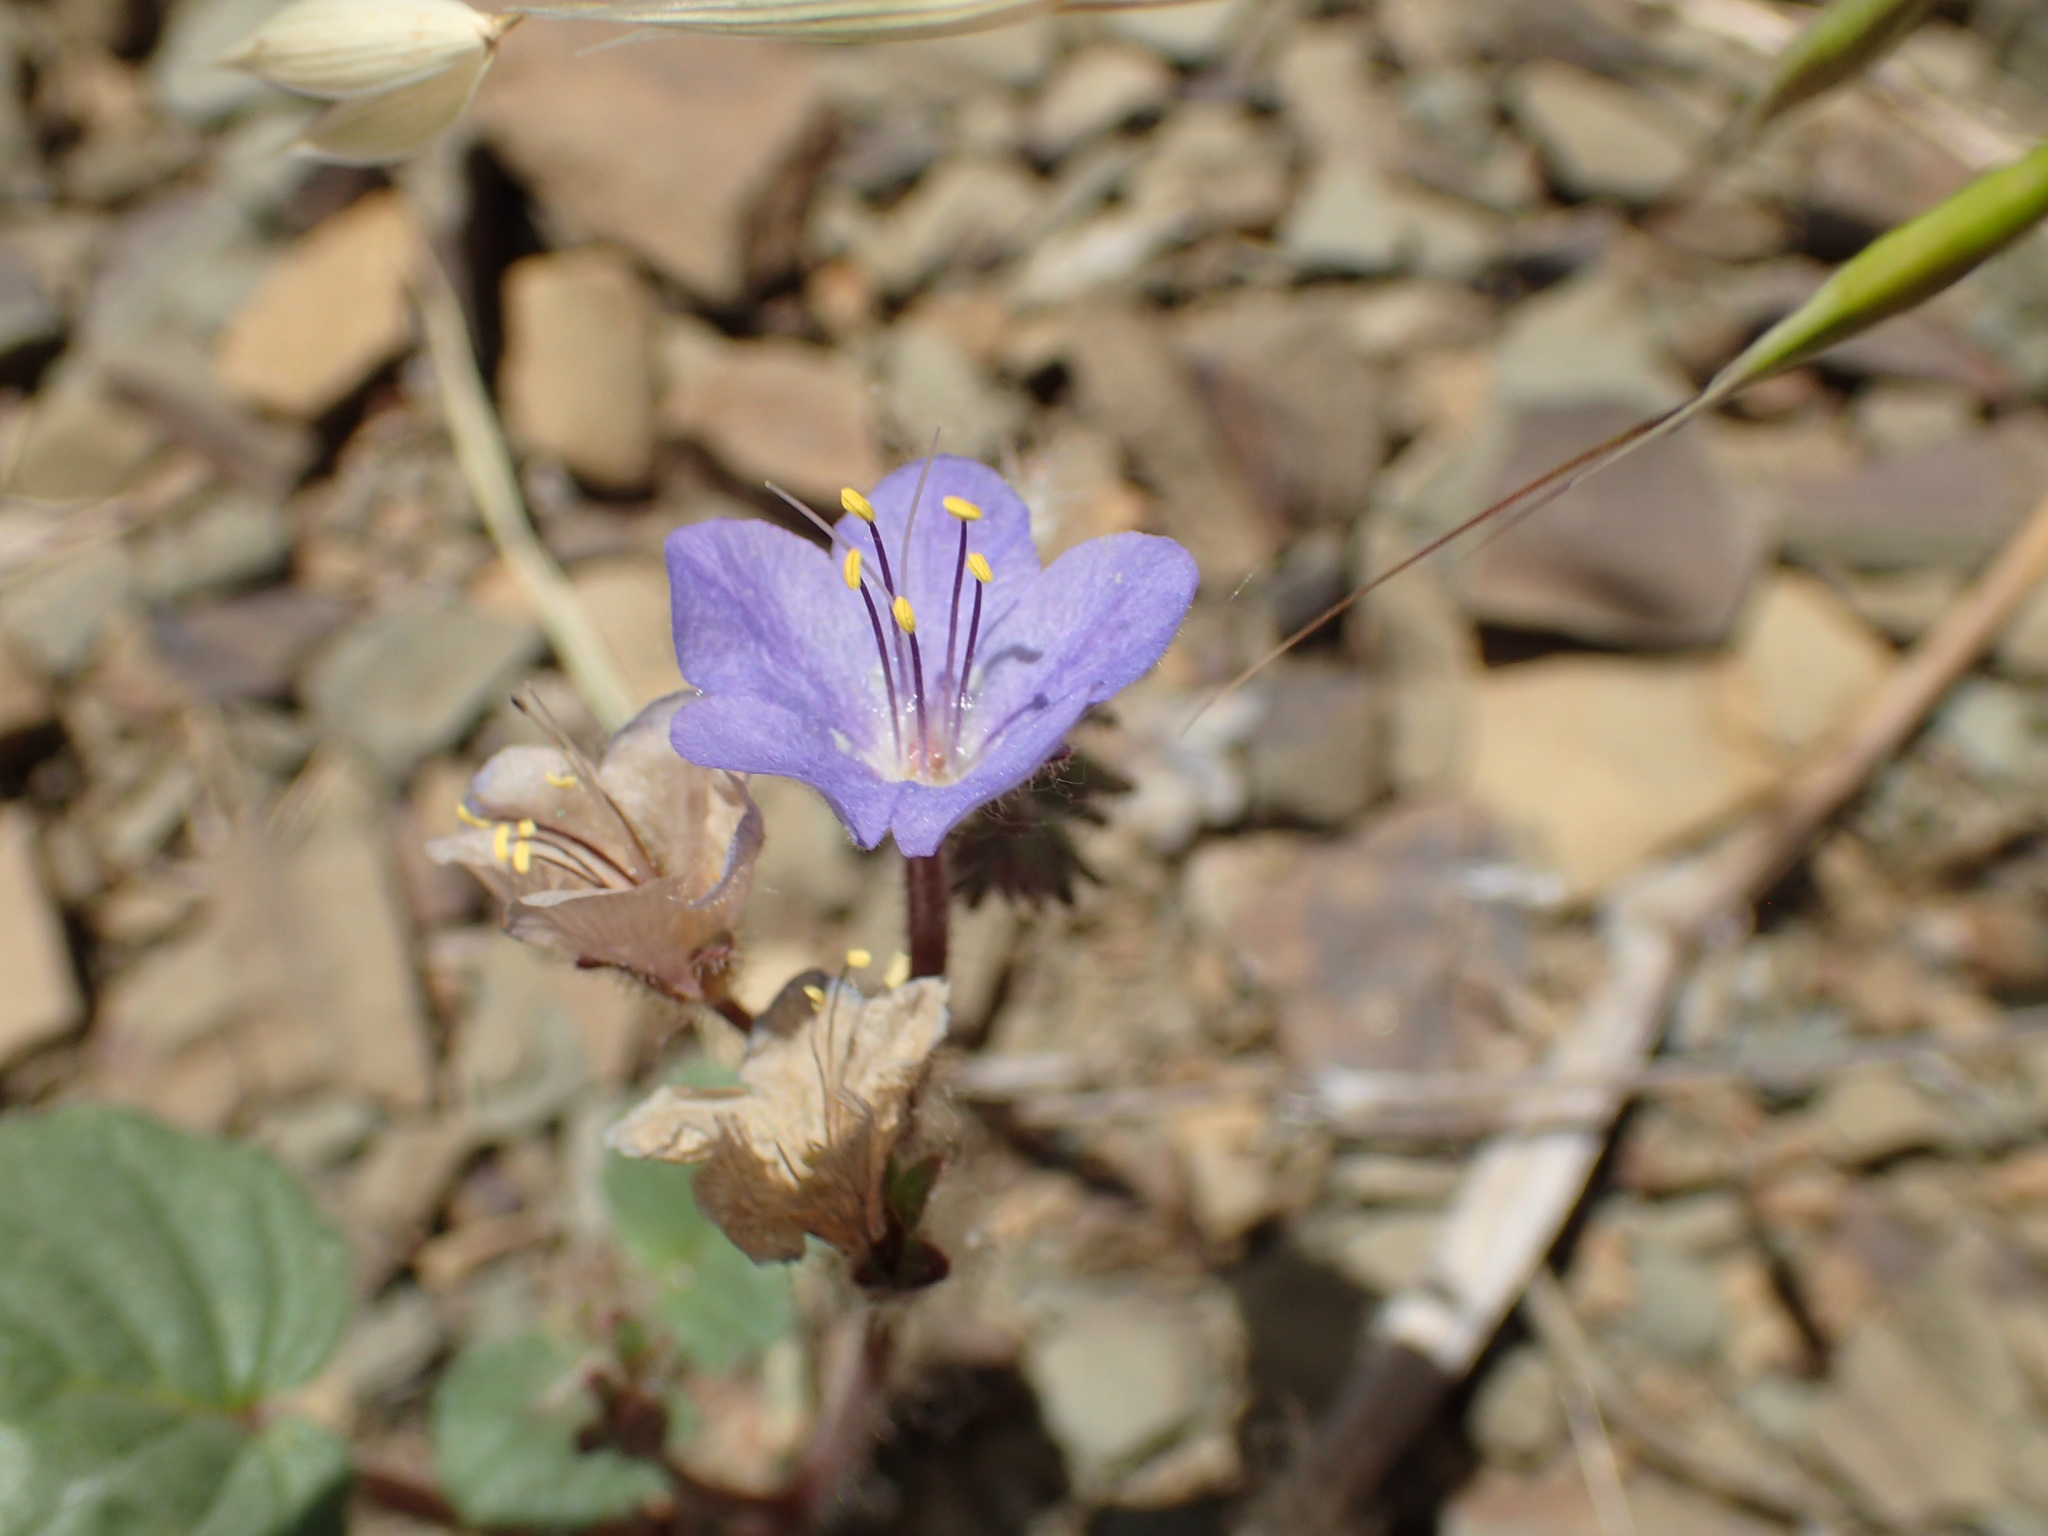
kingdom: Plantae
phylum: Tracheophyta
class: Magnoliopsida
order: Boraginales
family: Hydrophyllaceae
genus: Phacelia
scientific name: Phacelia longipes
